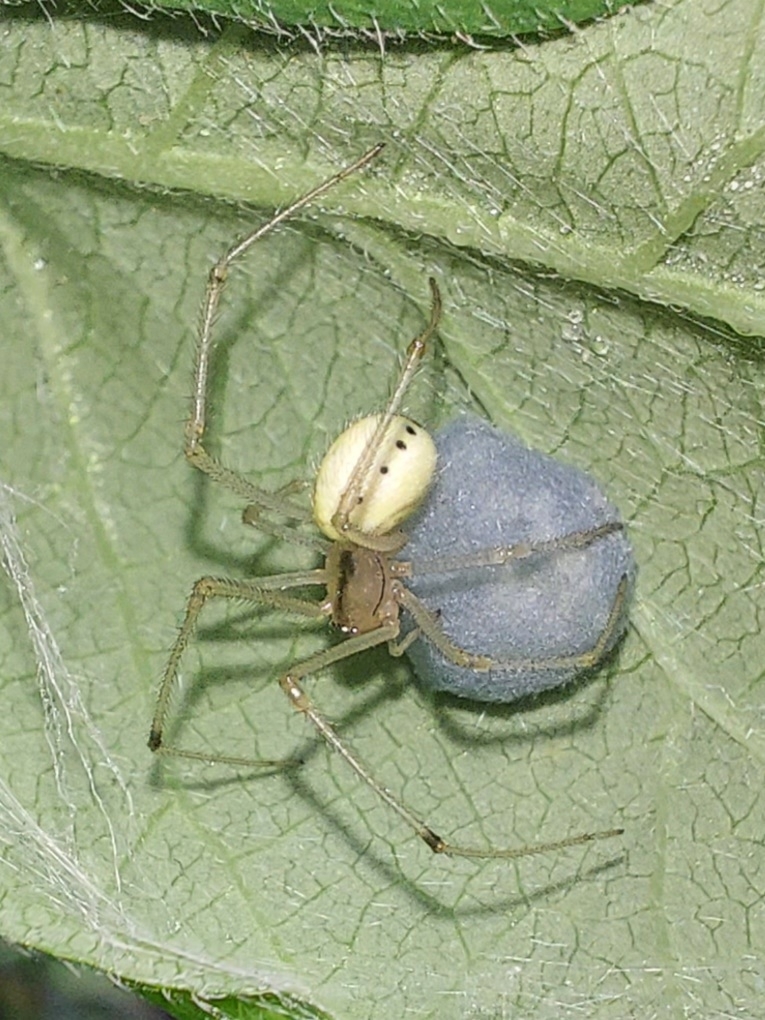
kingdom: Animalia
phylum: Arthropoda
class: Arachnida
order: Araneae
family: Theridiidae
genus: Enoplognatha
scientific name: Enoplognatha ovata
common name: Common candy-striped spider
